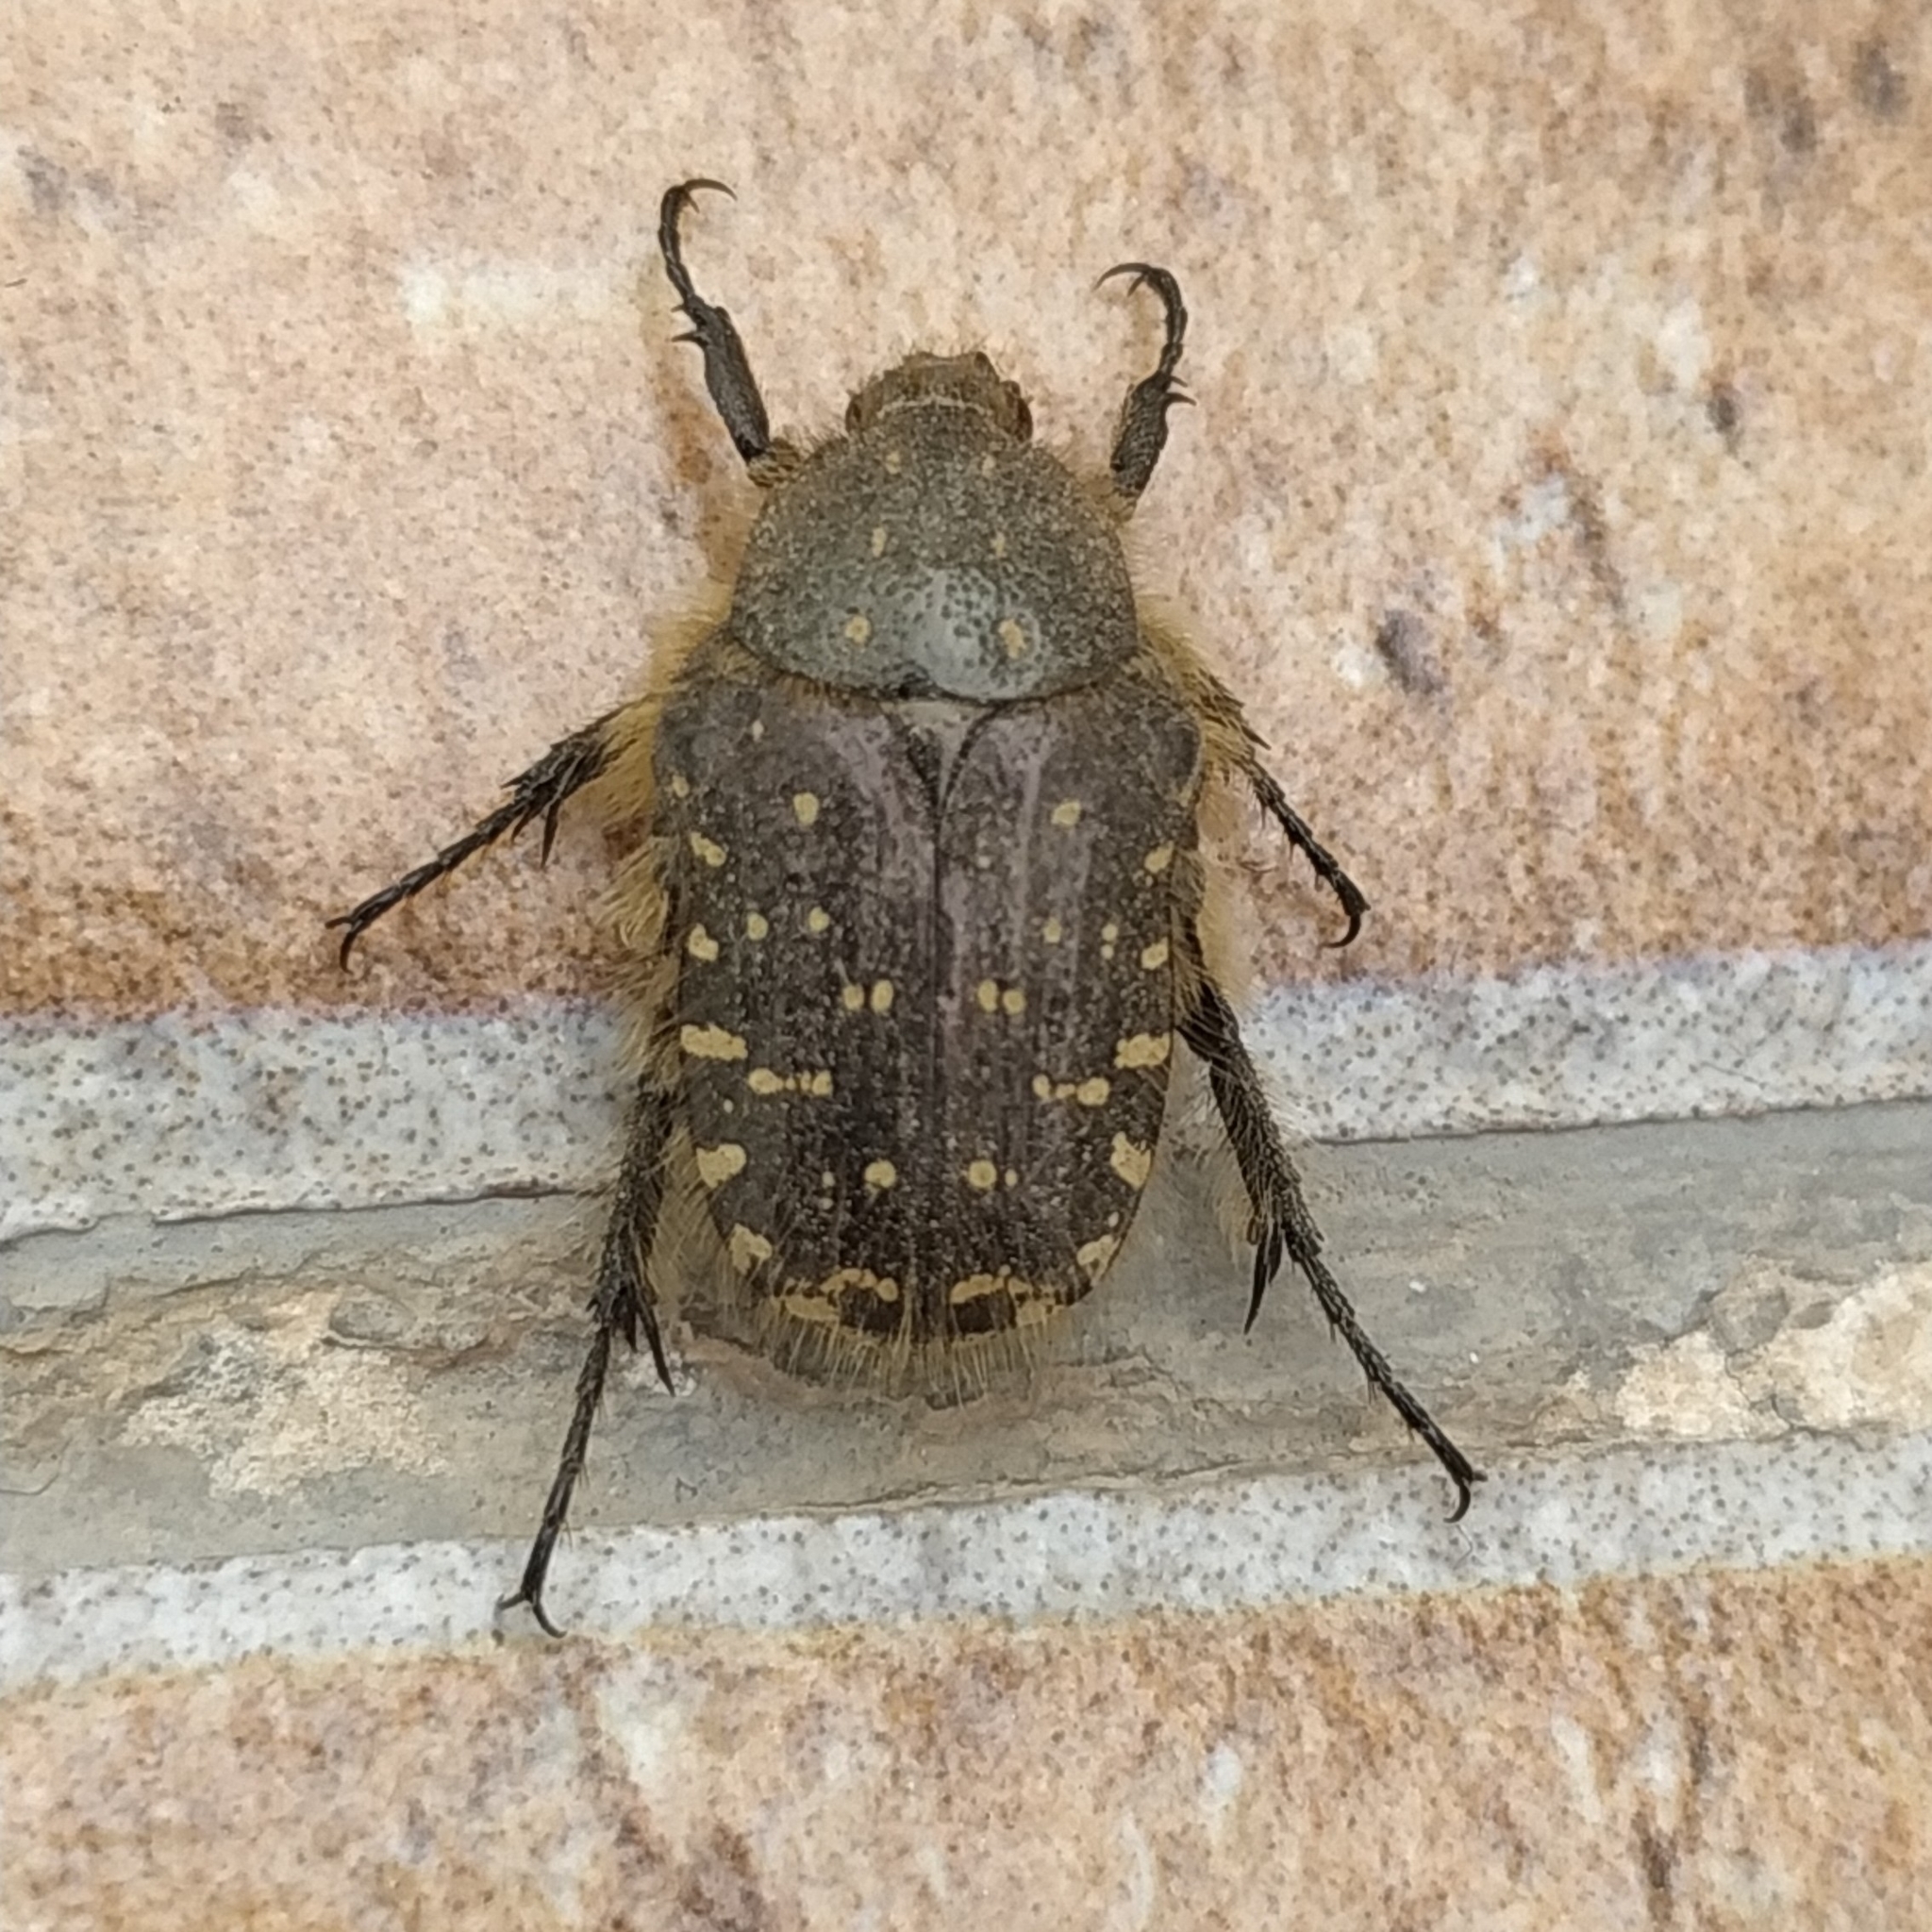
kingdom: Animalia
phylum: Arthropoda
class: Insecta
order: Coleoptera
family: Scarabaeidae
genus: Oxythyrea
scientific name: Oxythyrea funesta
